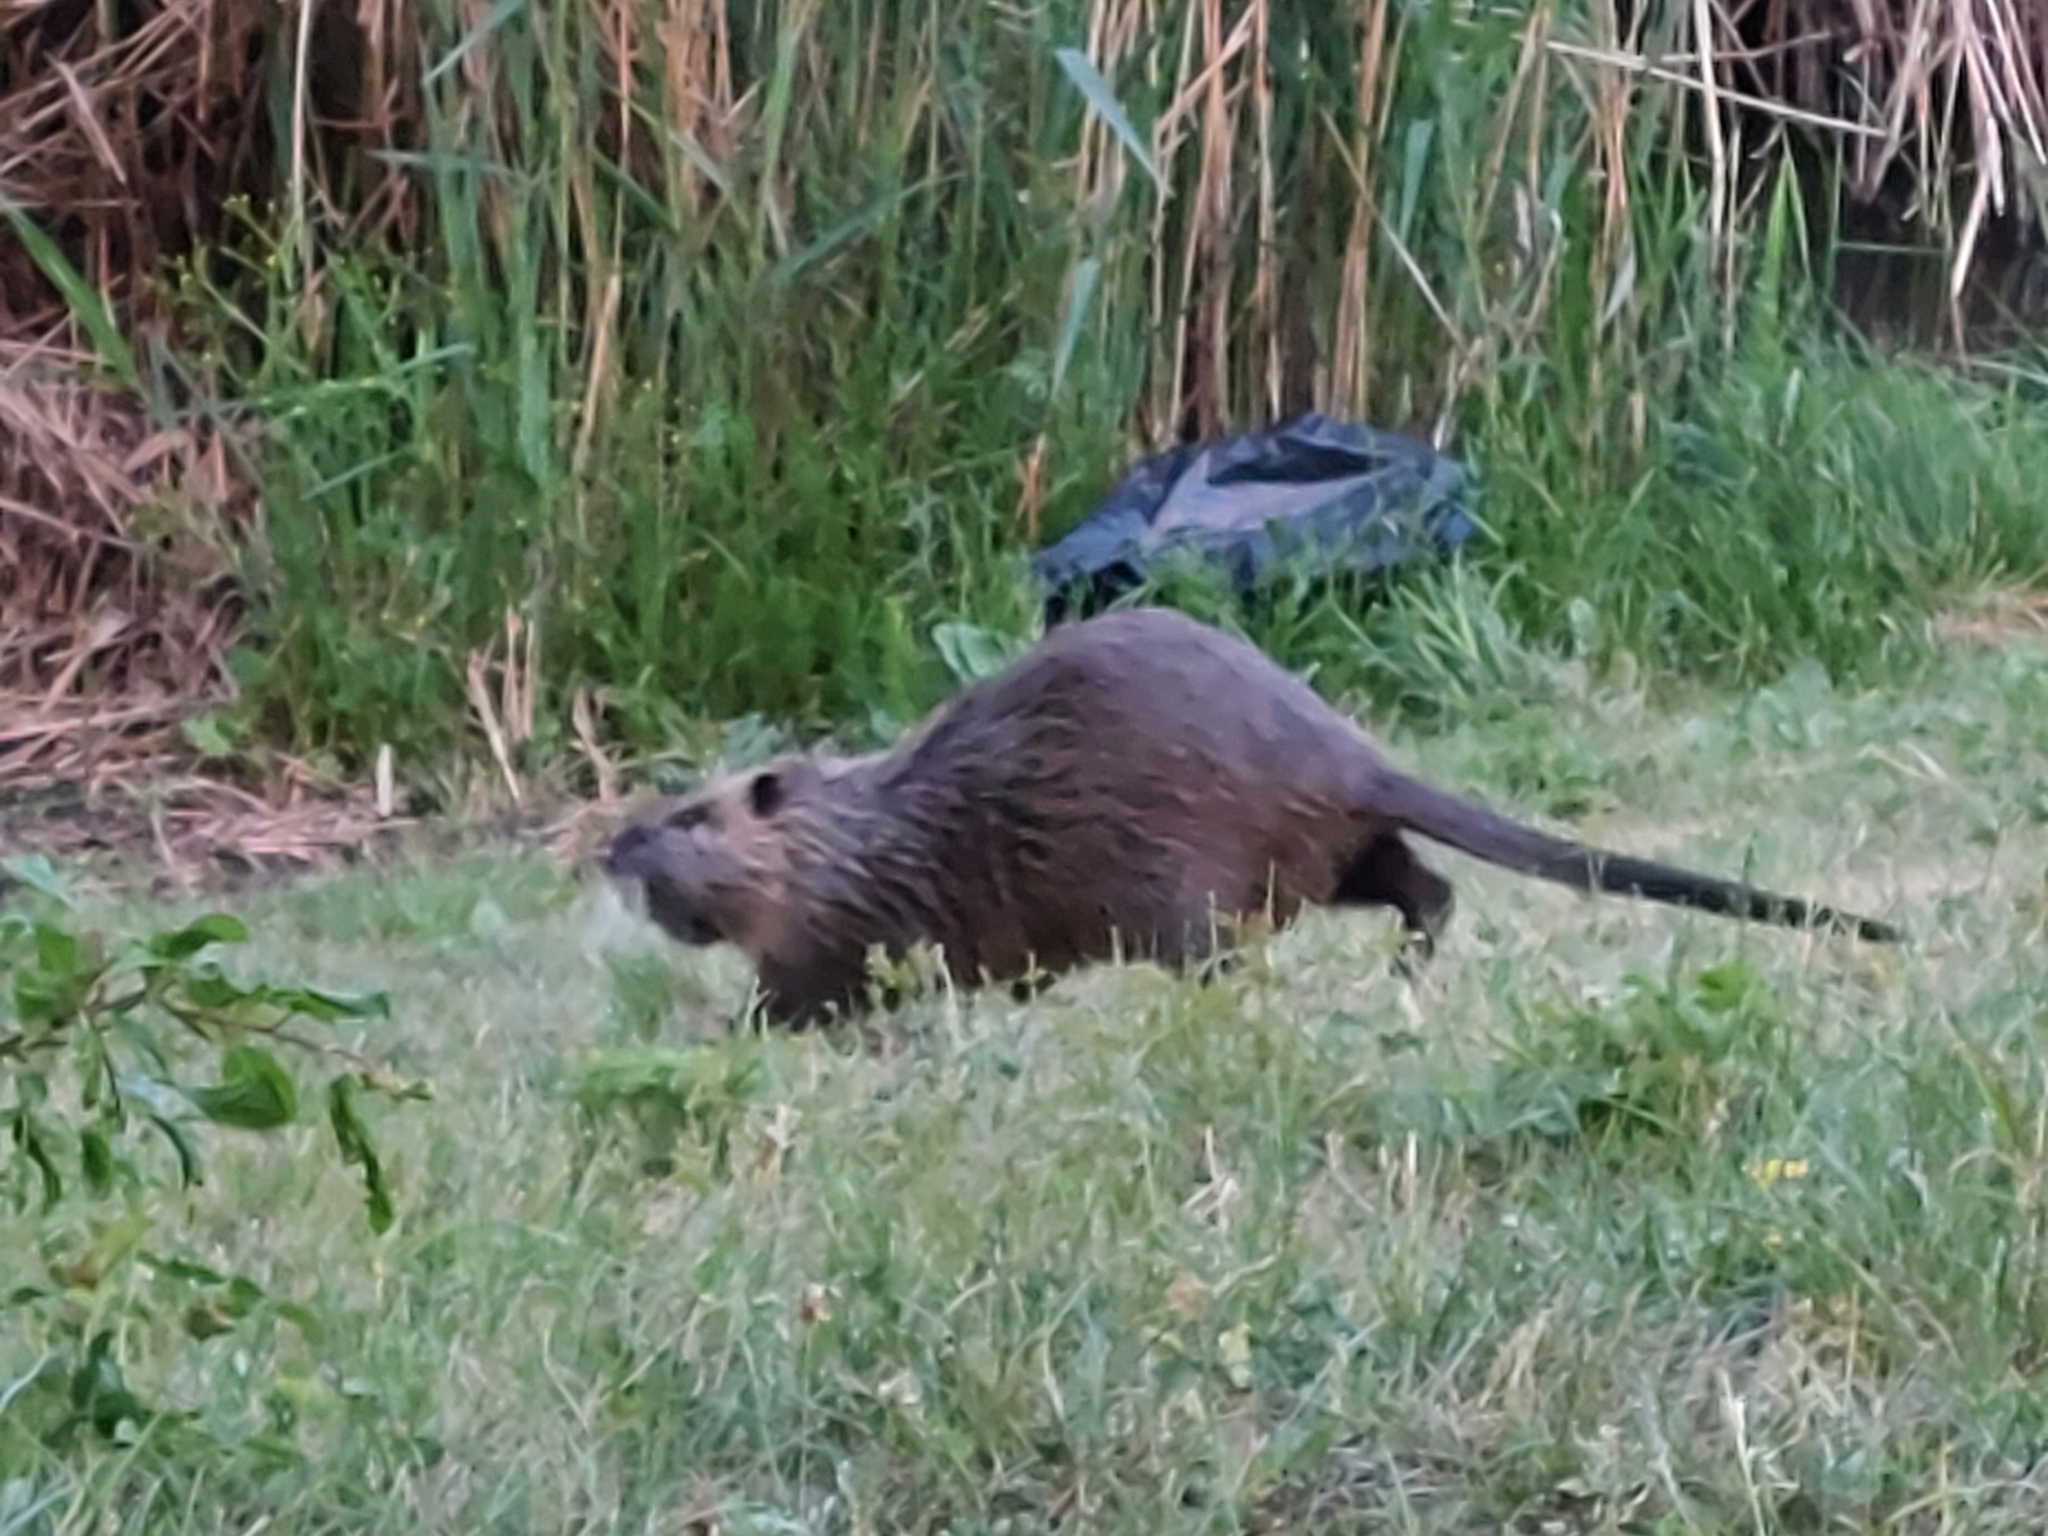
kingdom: Animalia
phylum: Chordata
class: Mammalia
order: Rodentia
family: Myocastoridae
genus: Myocastor
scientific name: Myocastor coypus
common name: Coypu
